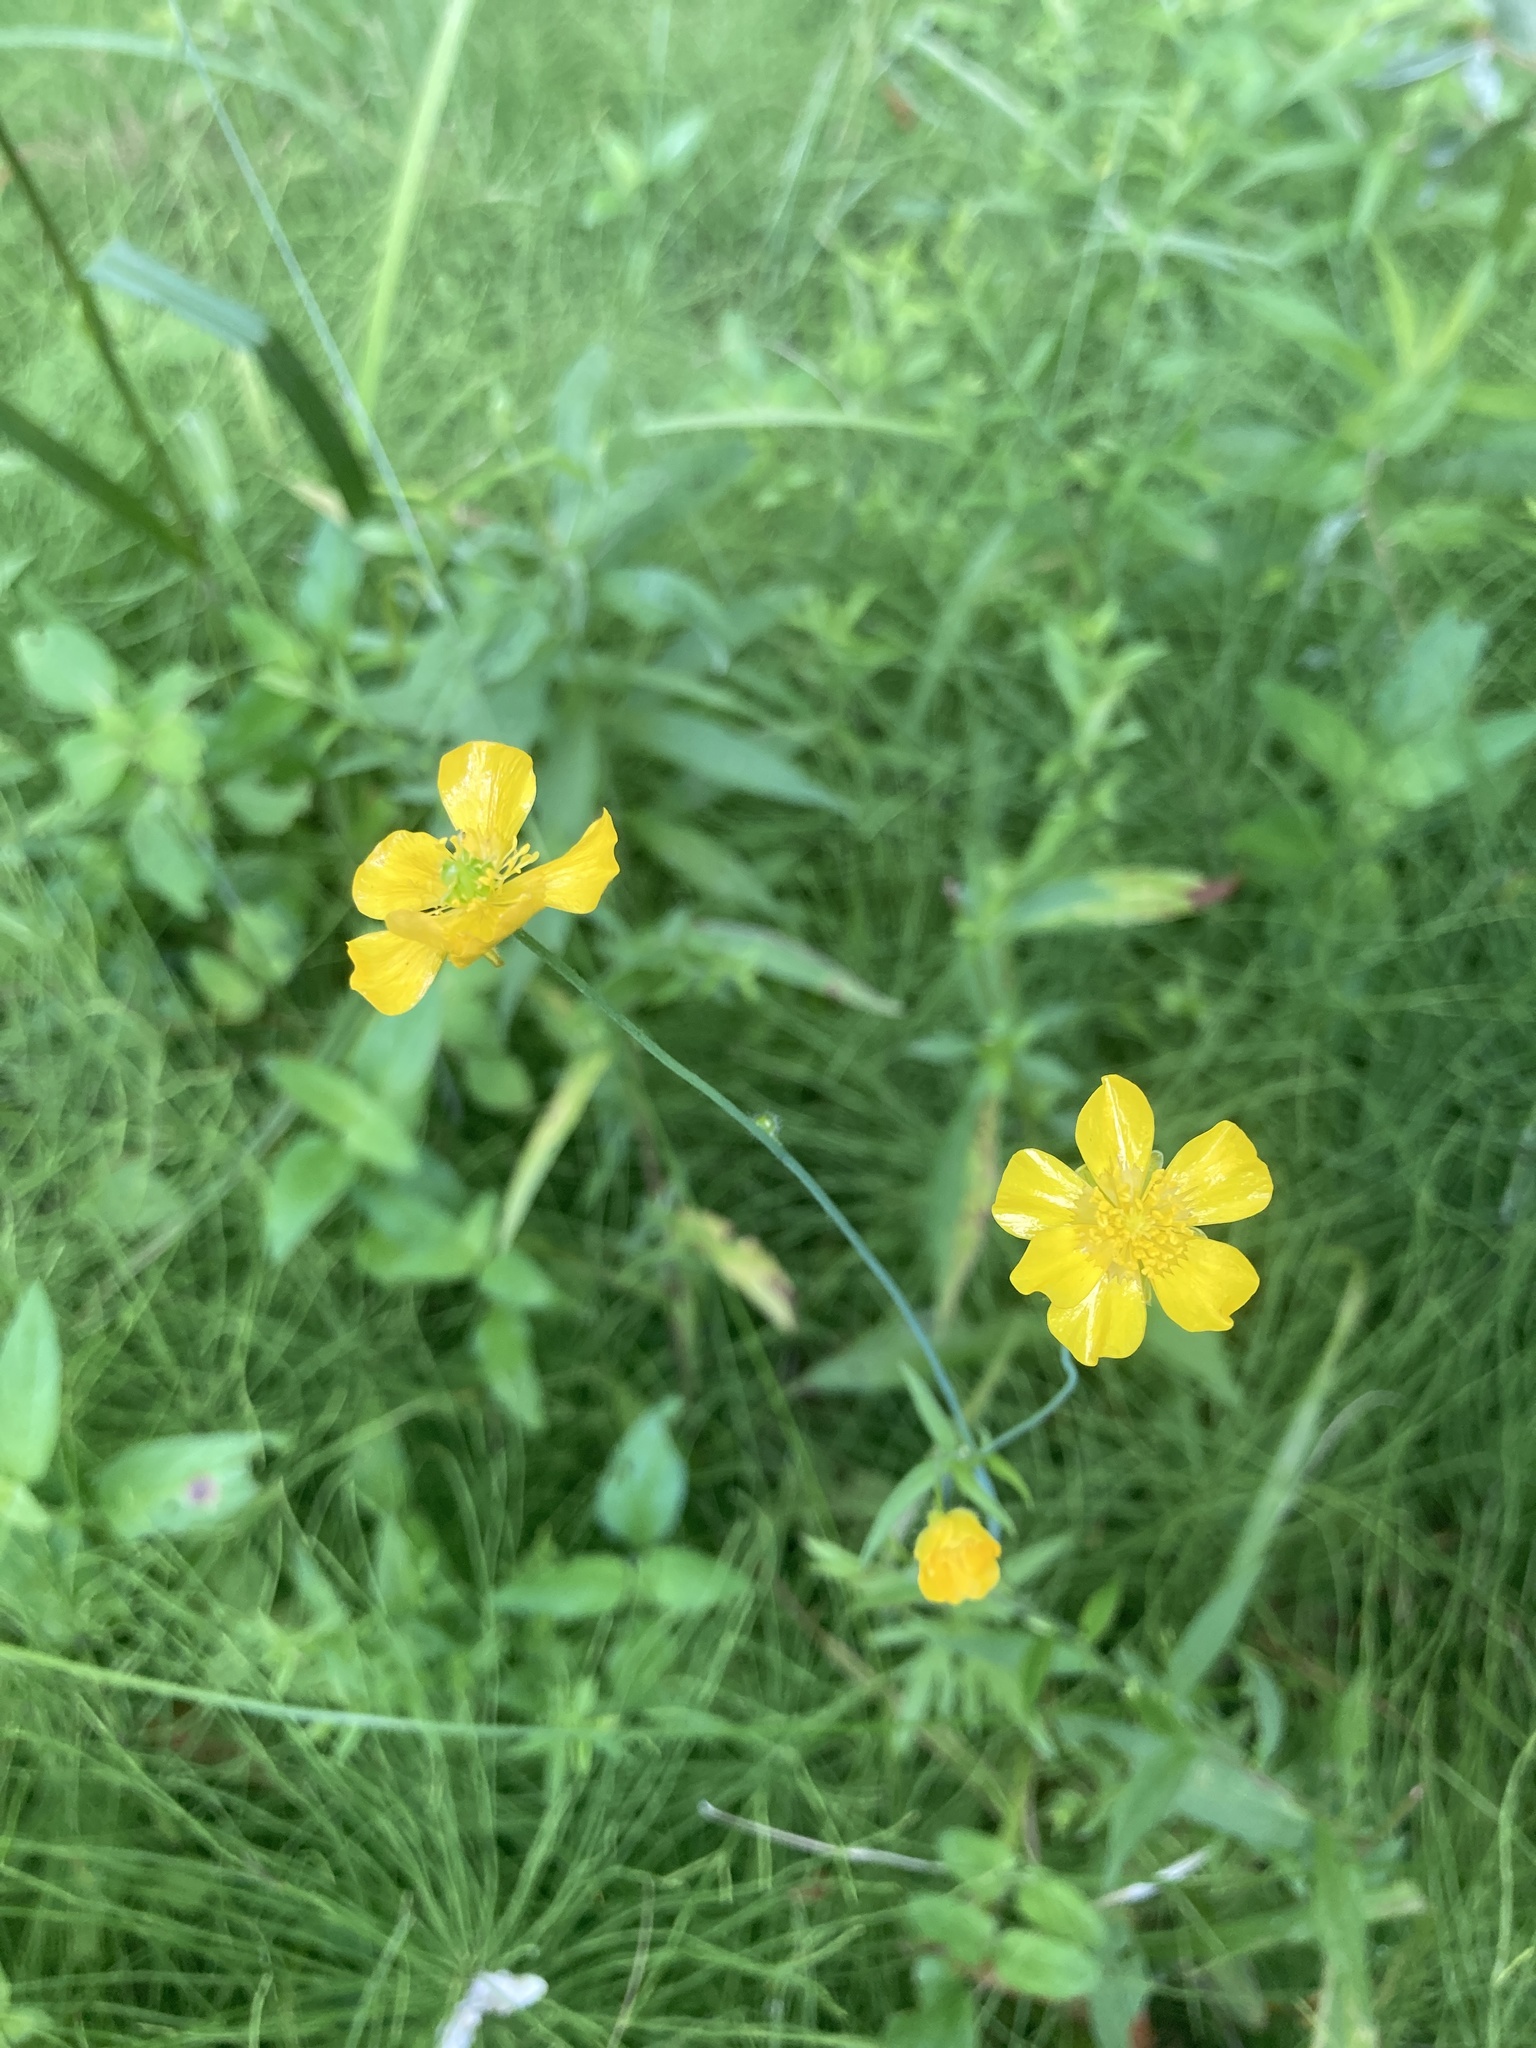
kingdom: Plantae
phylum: Tracheophyta
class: Magnoliopsida
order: Ranunculales
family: Ranunculaceae
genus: Ranunculus
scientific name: Ranunculus acris
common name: Meadow buttercup
